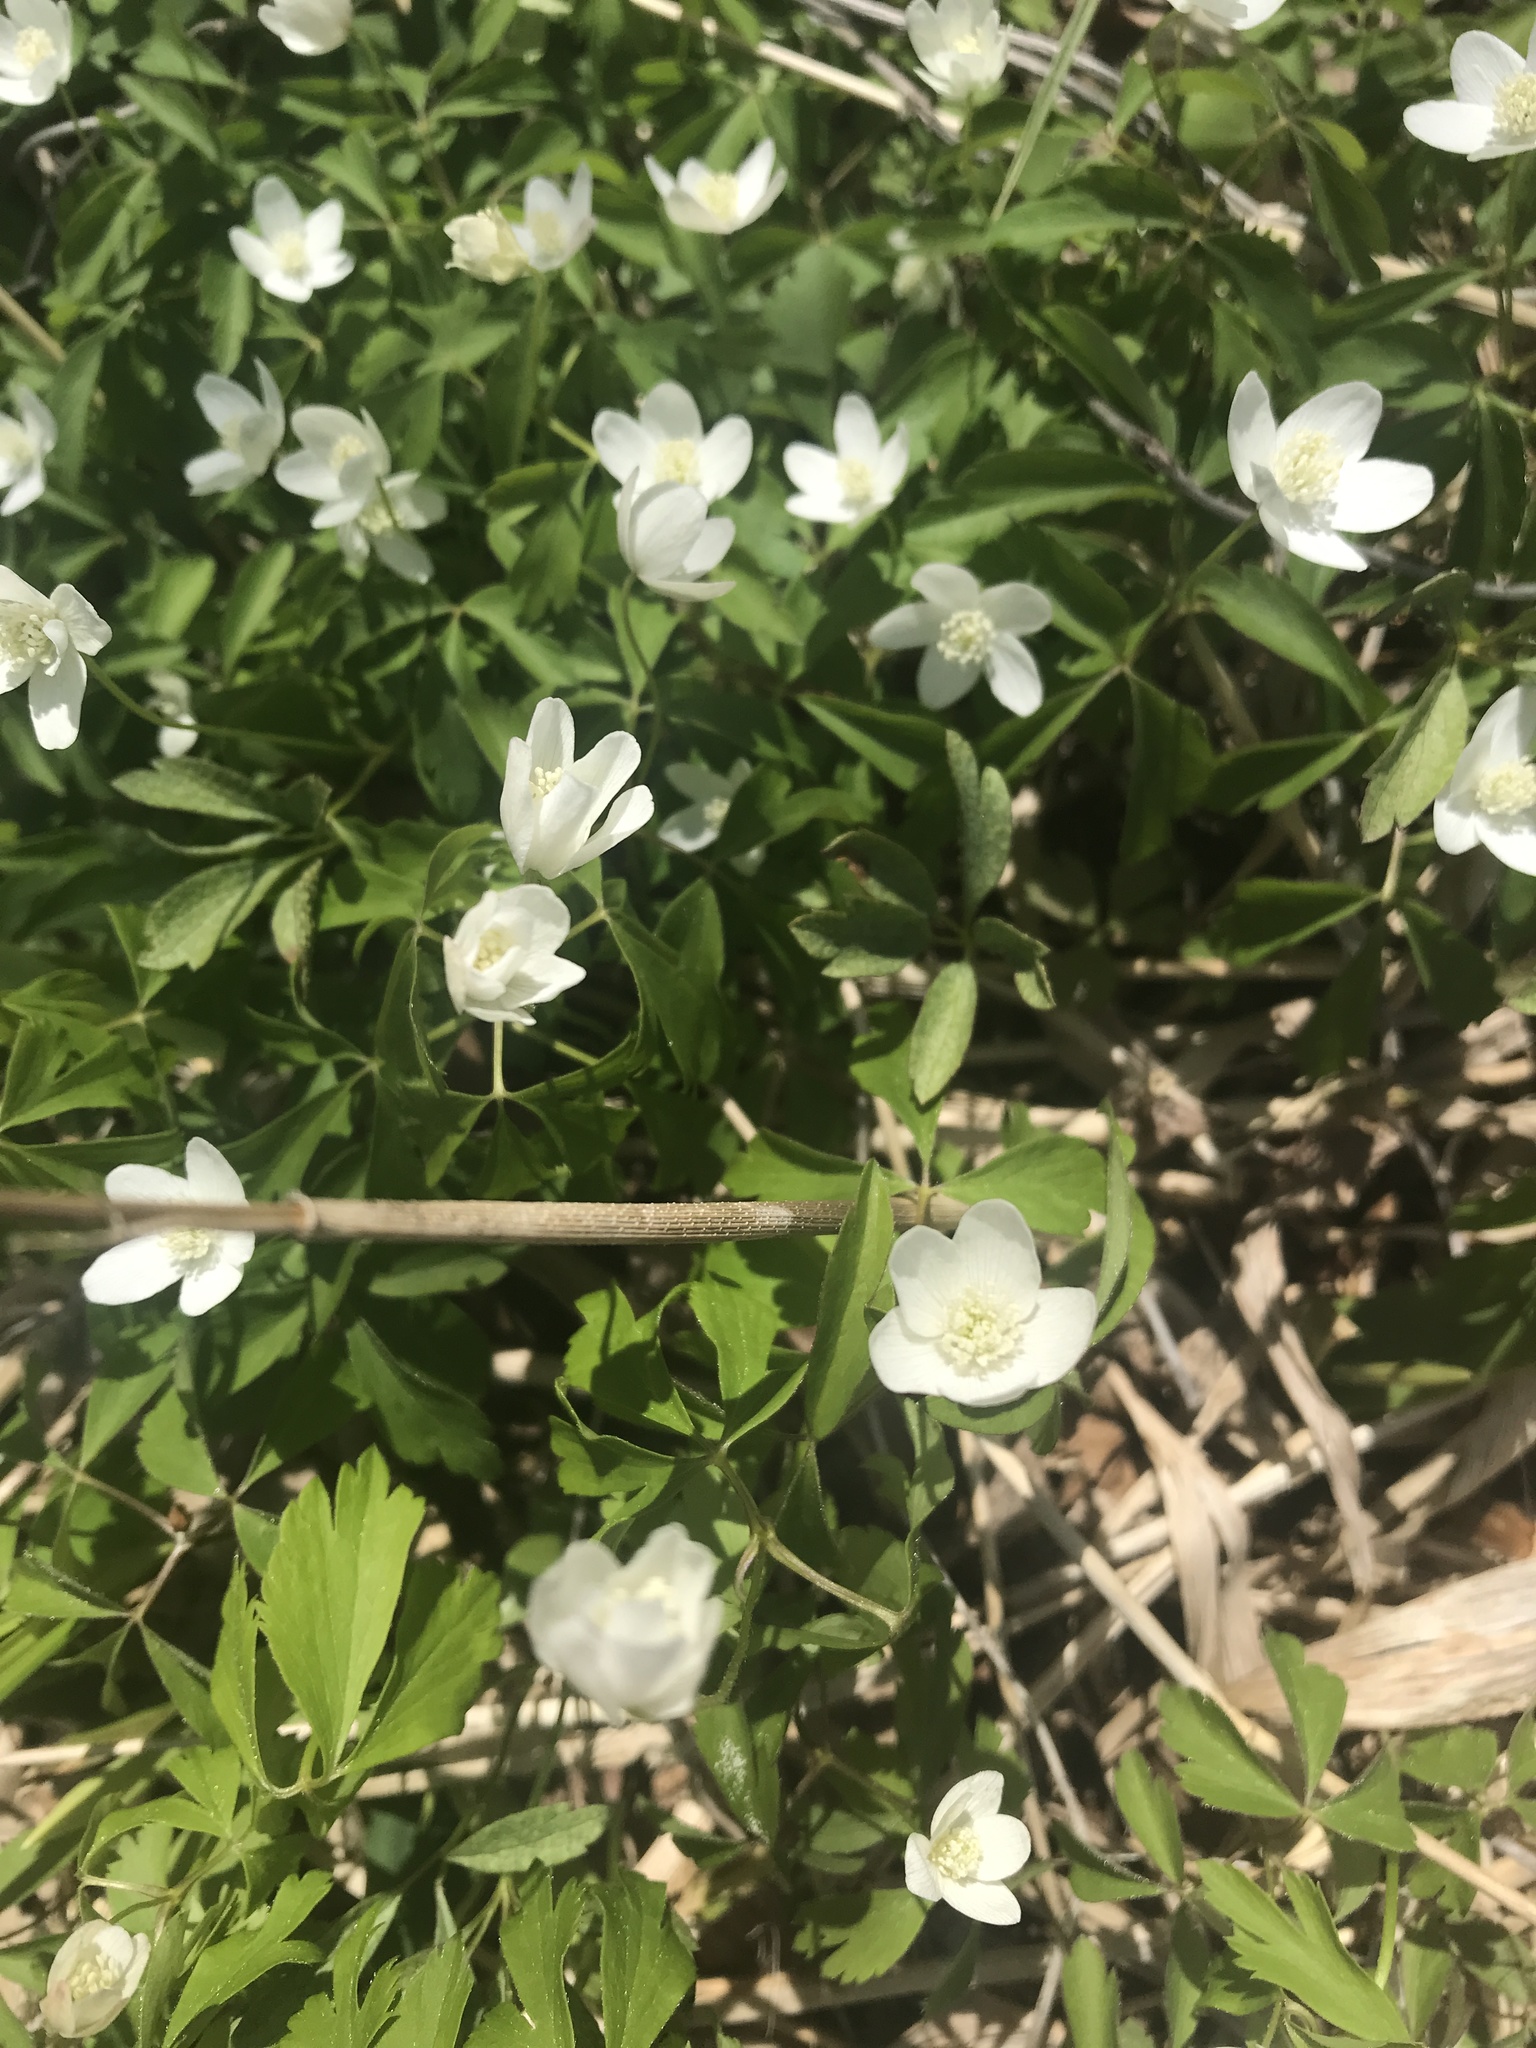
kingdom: Plantae
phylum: Tracheophyta
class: Magnoliopsida
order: Ranunculales
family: Ranunculaceae
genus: Anemone
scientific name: Anemone quinquefolia
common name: Wood anemone
